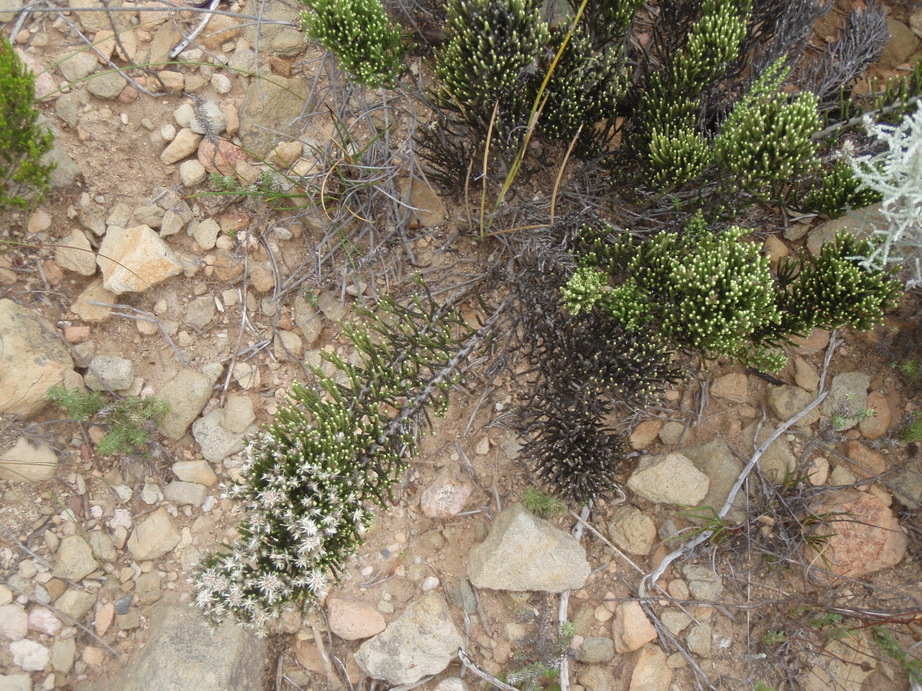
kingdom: Plantae
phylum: Tracheophyta
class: Magnoliopsida
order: Asterales
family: Asteraceae
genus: Dolichothrix
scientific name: Dolichothrix ericoides
